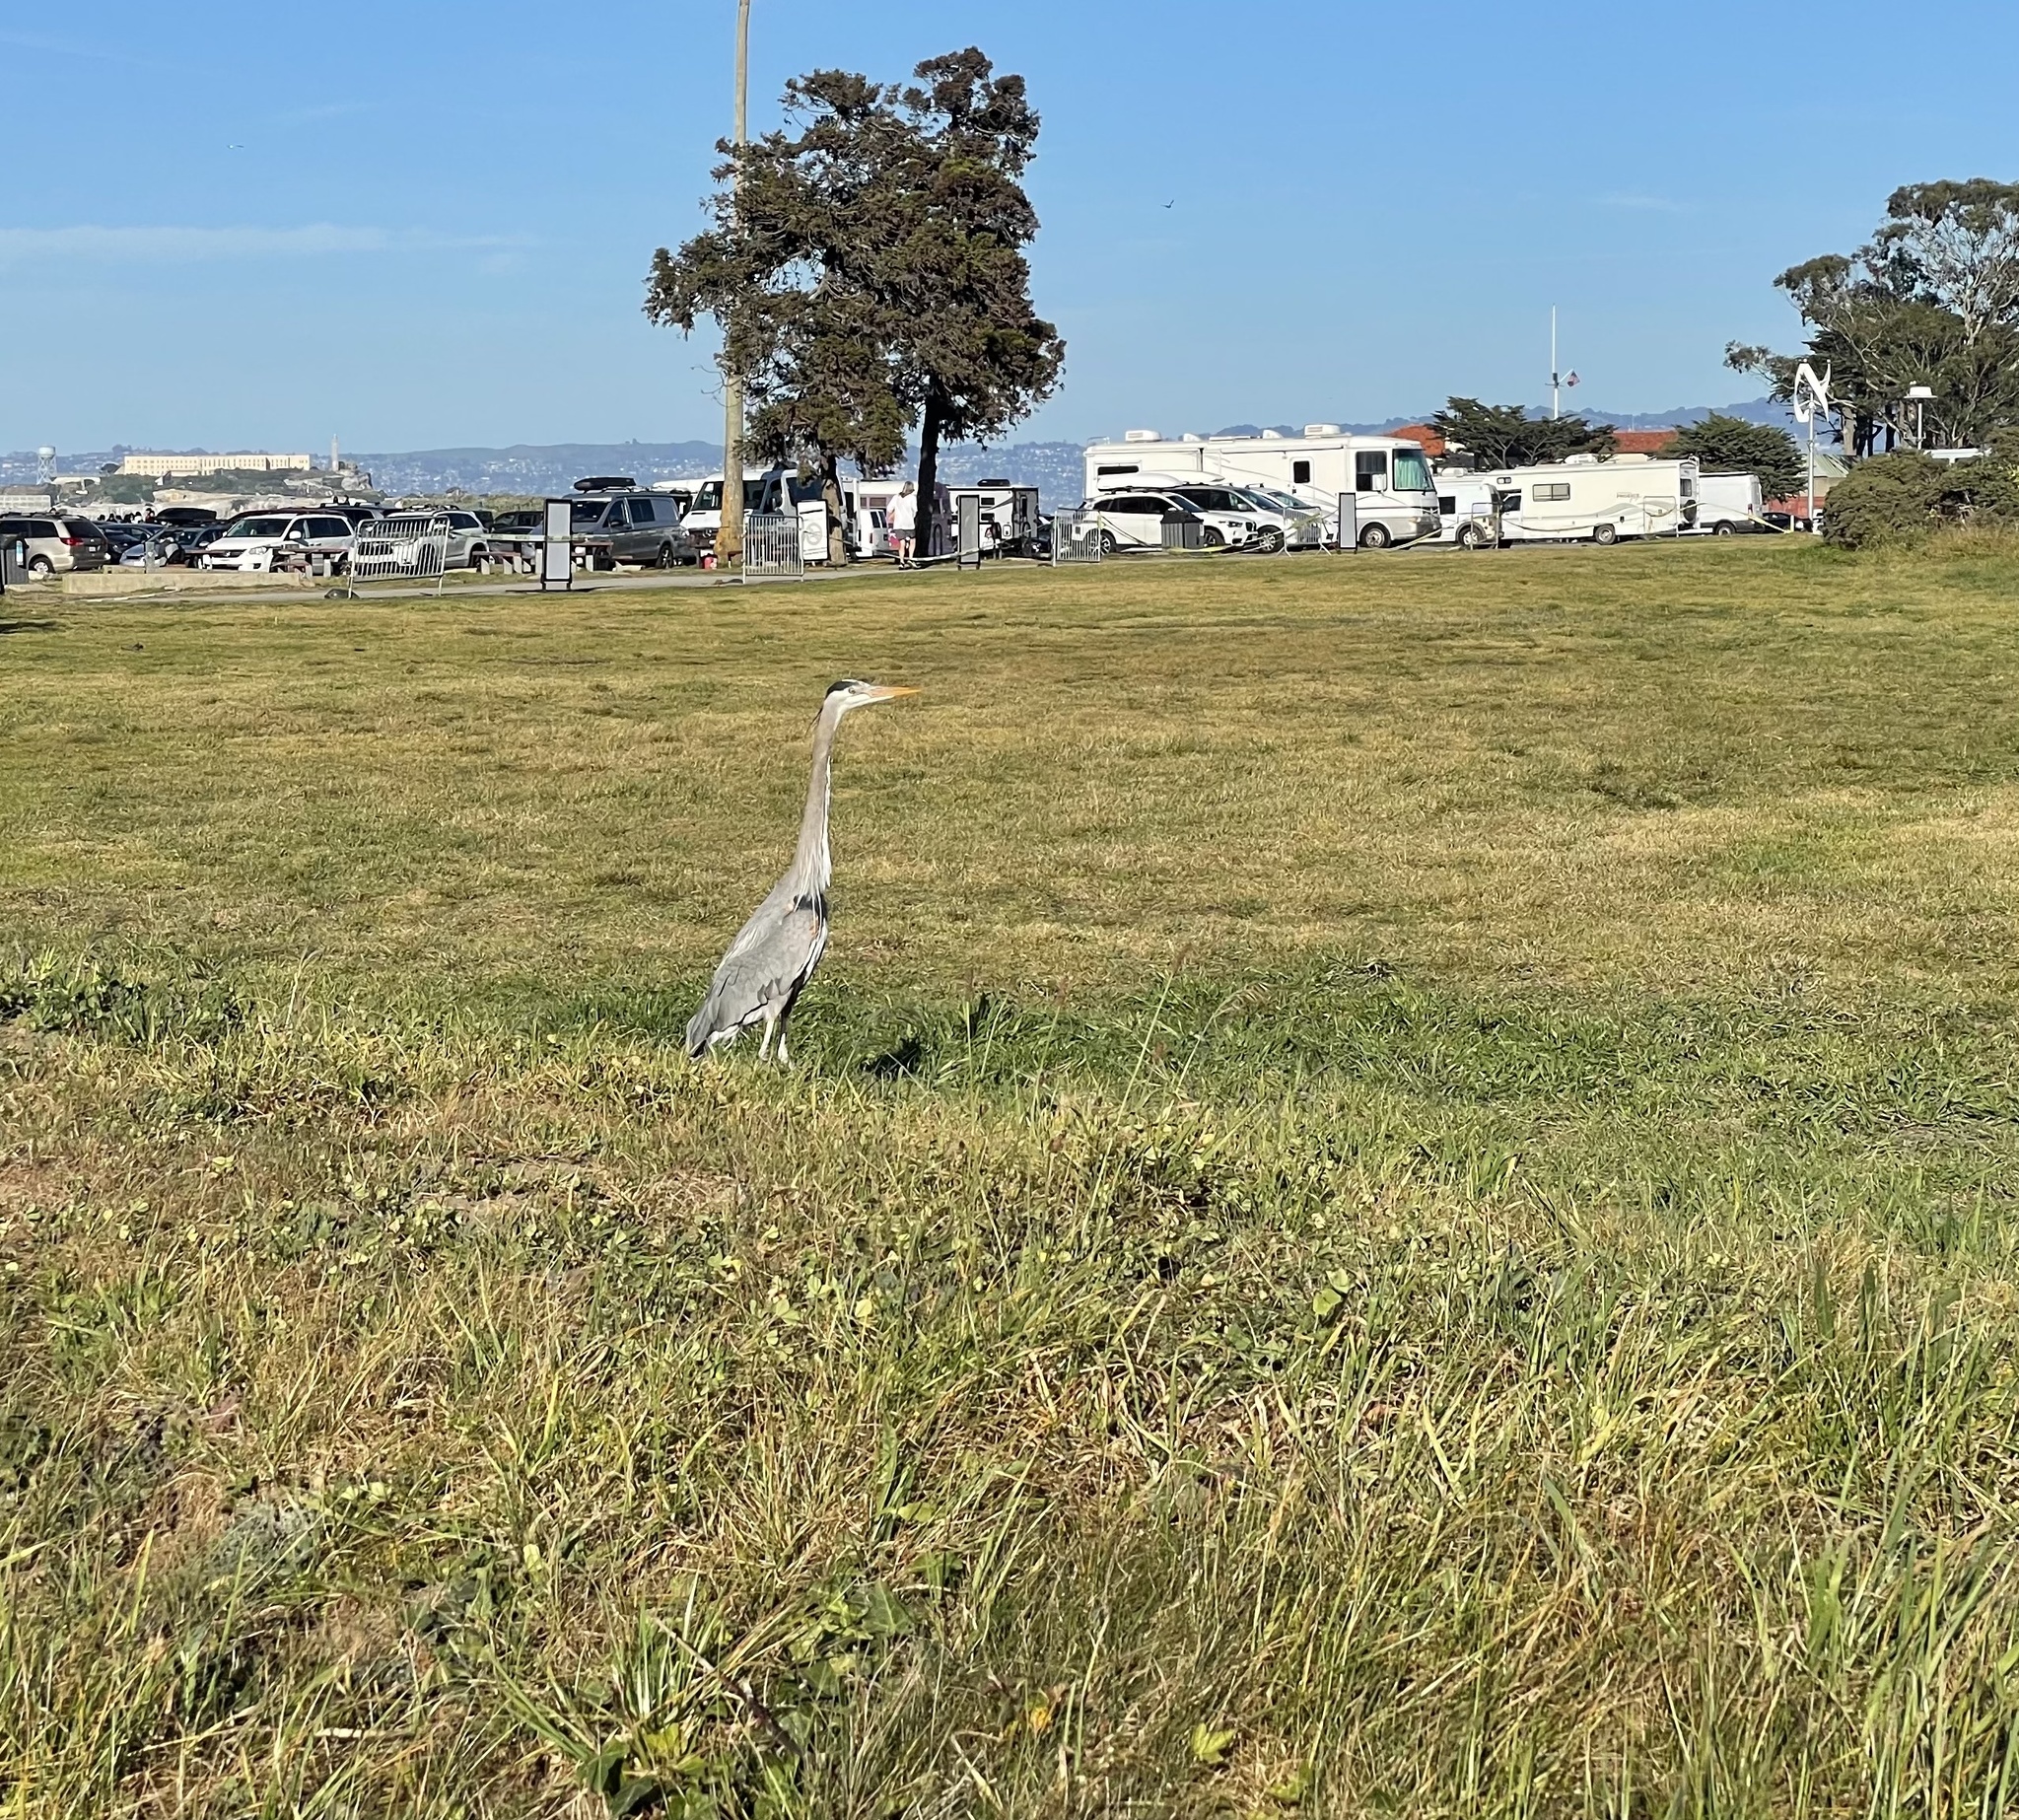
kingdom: Animalia
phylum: Chordata
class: Aves
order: Pelecaniformes
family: Ardeidae
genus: Ardea
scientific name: Ardea herodias
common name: Great blue heron
